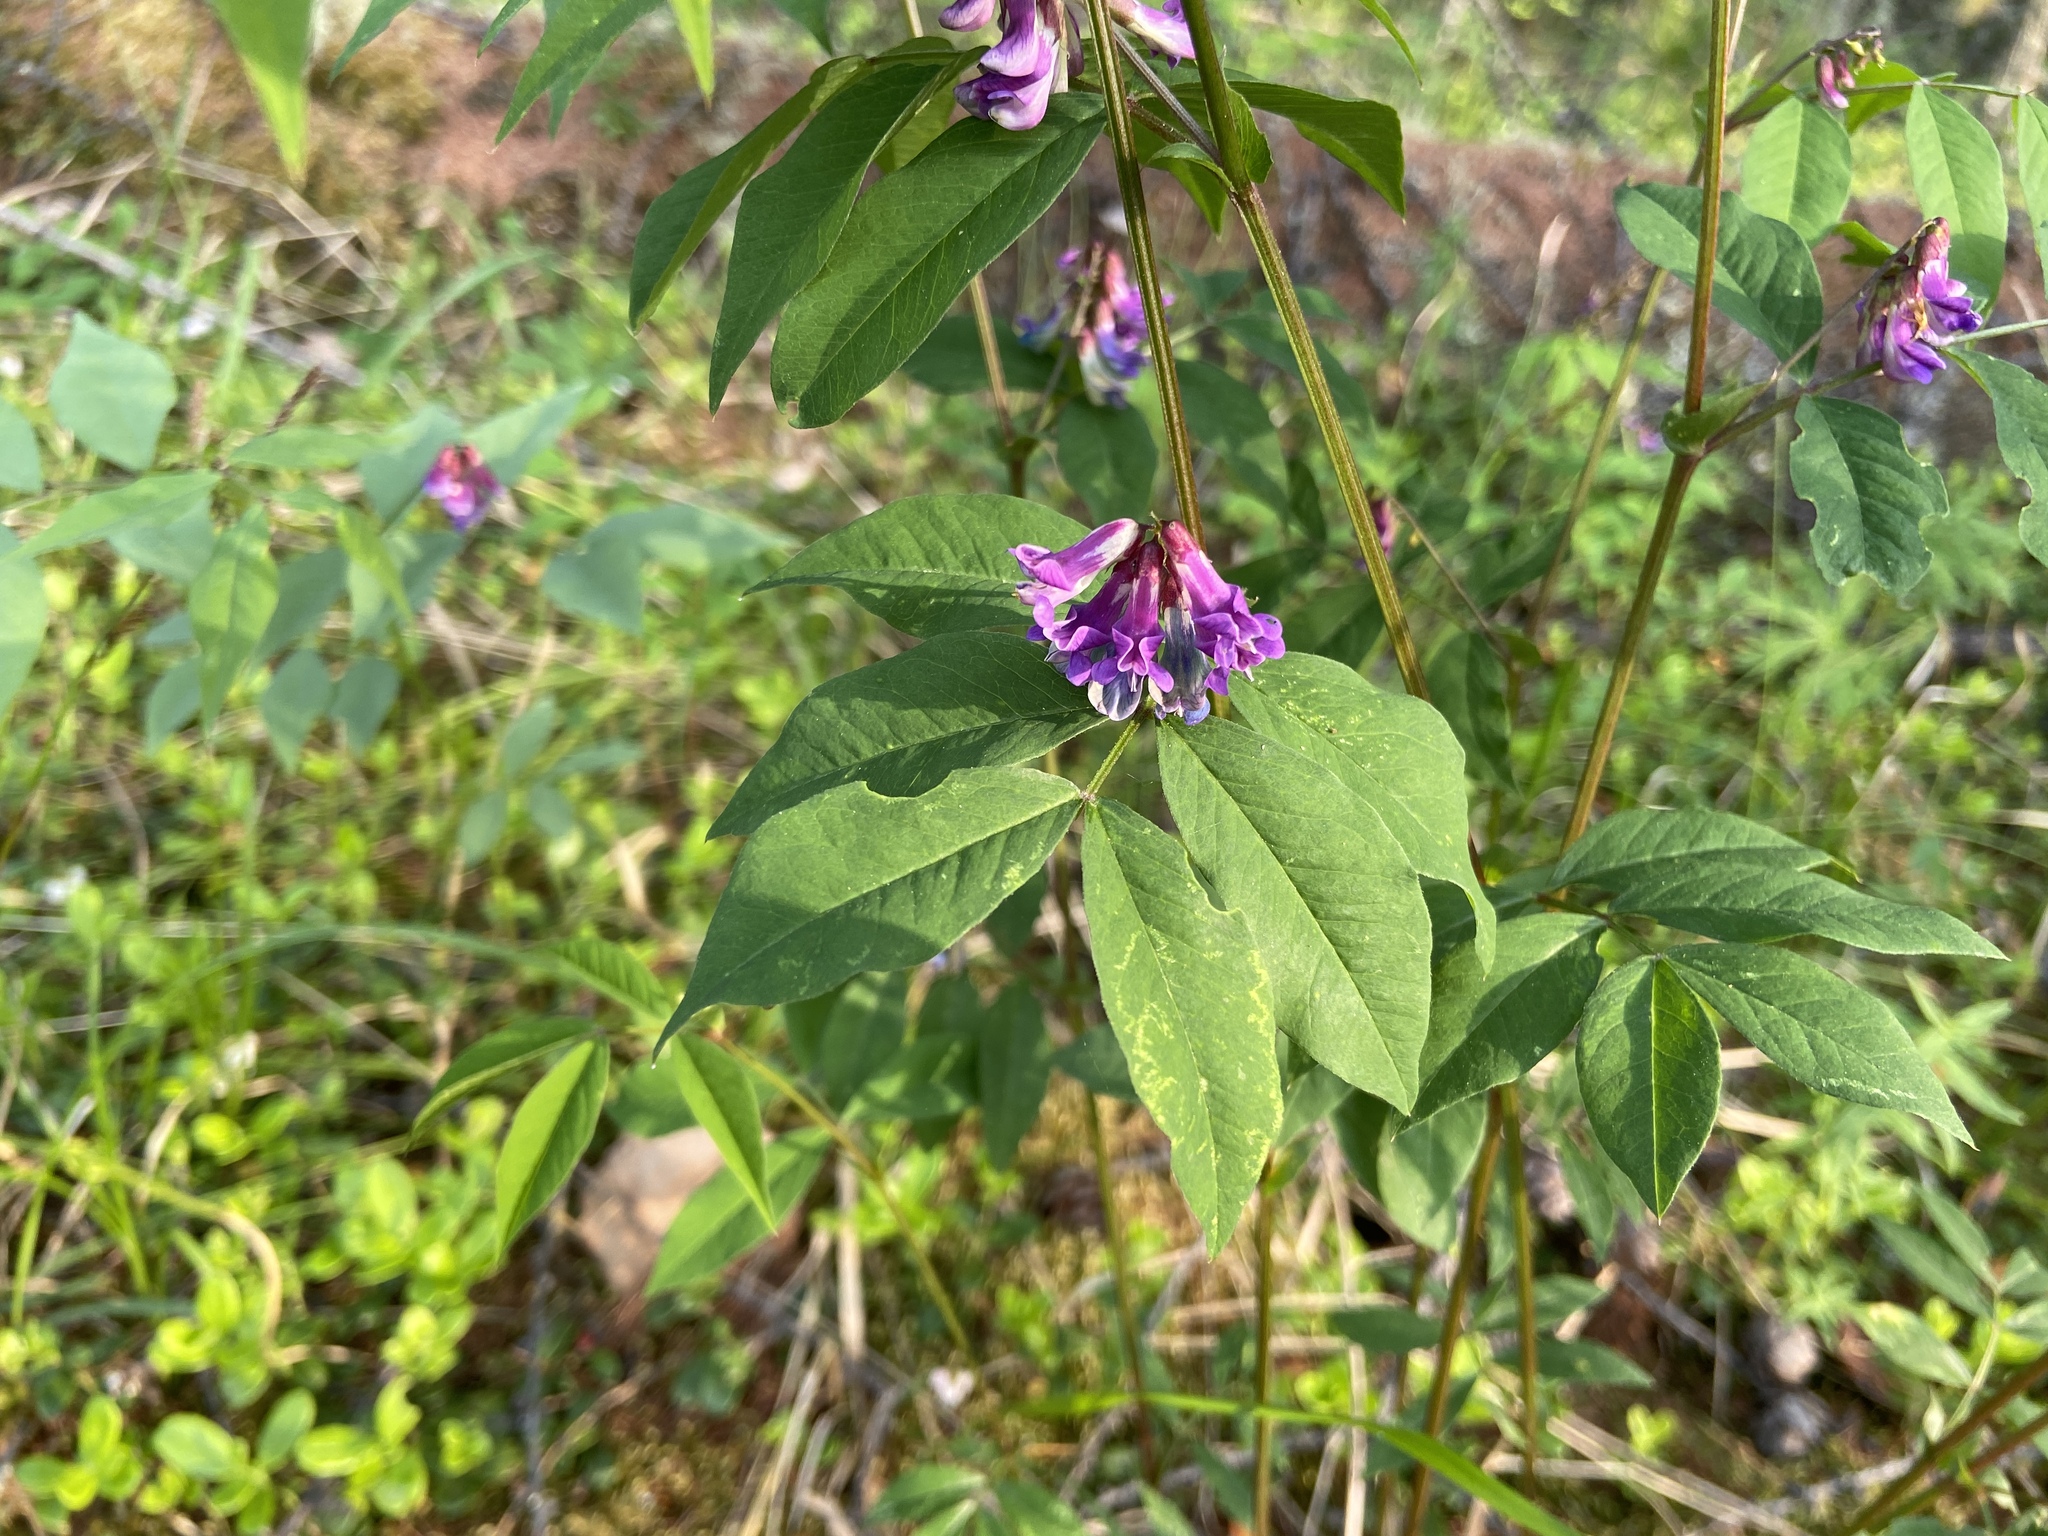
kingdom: Plantae
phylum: Tracheophyta
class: Magnoliopsida
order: Fabales
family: Fabaceae
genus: Vicia
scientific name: Vicia ramuliflora
